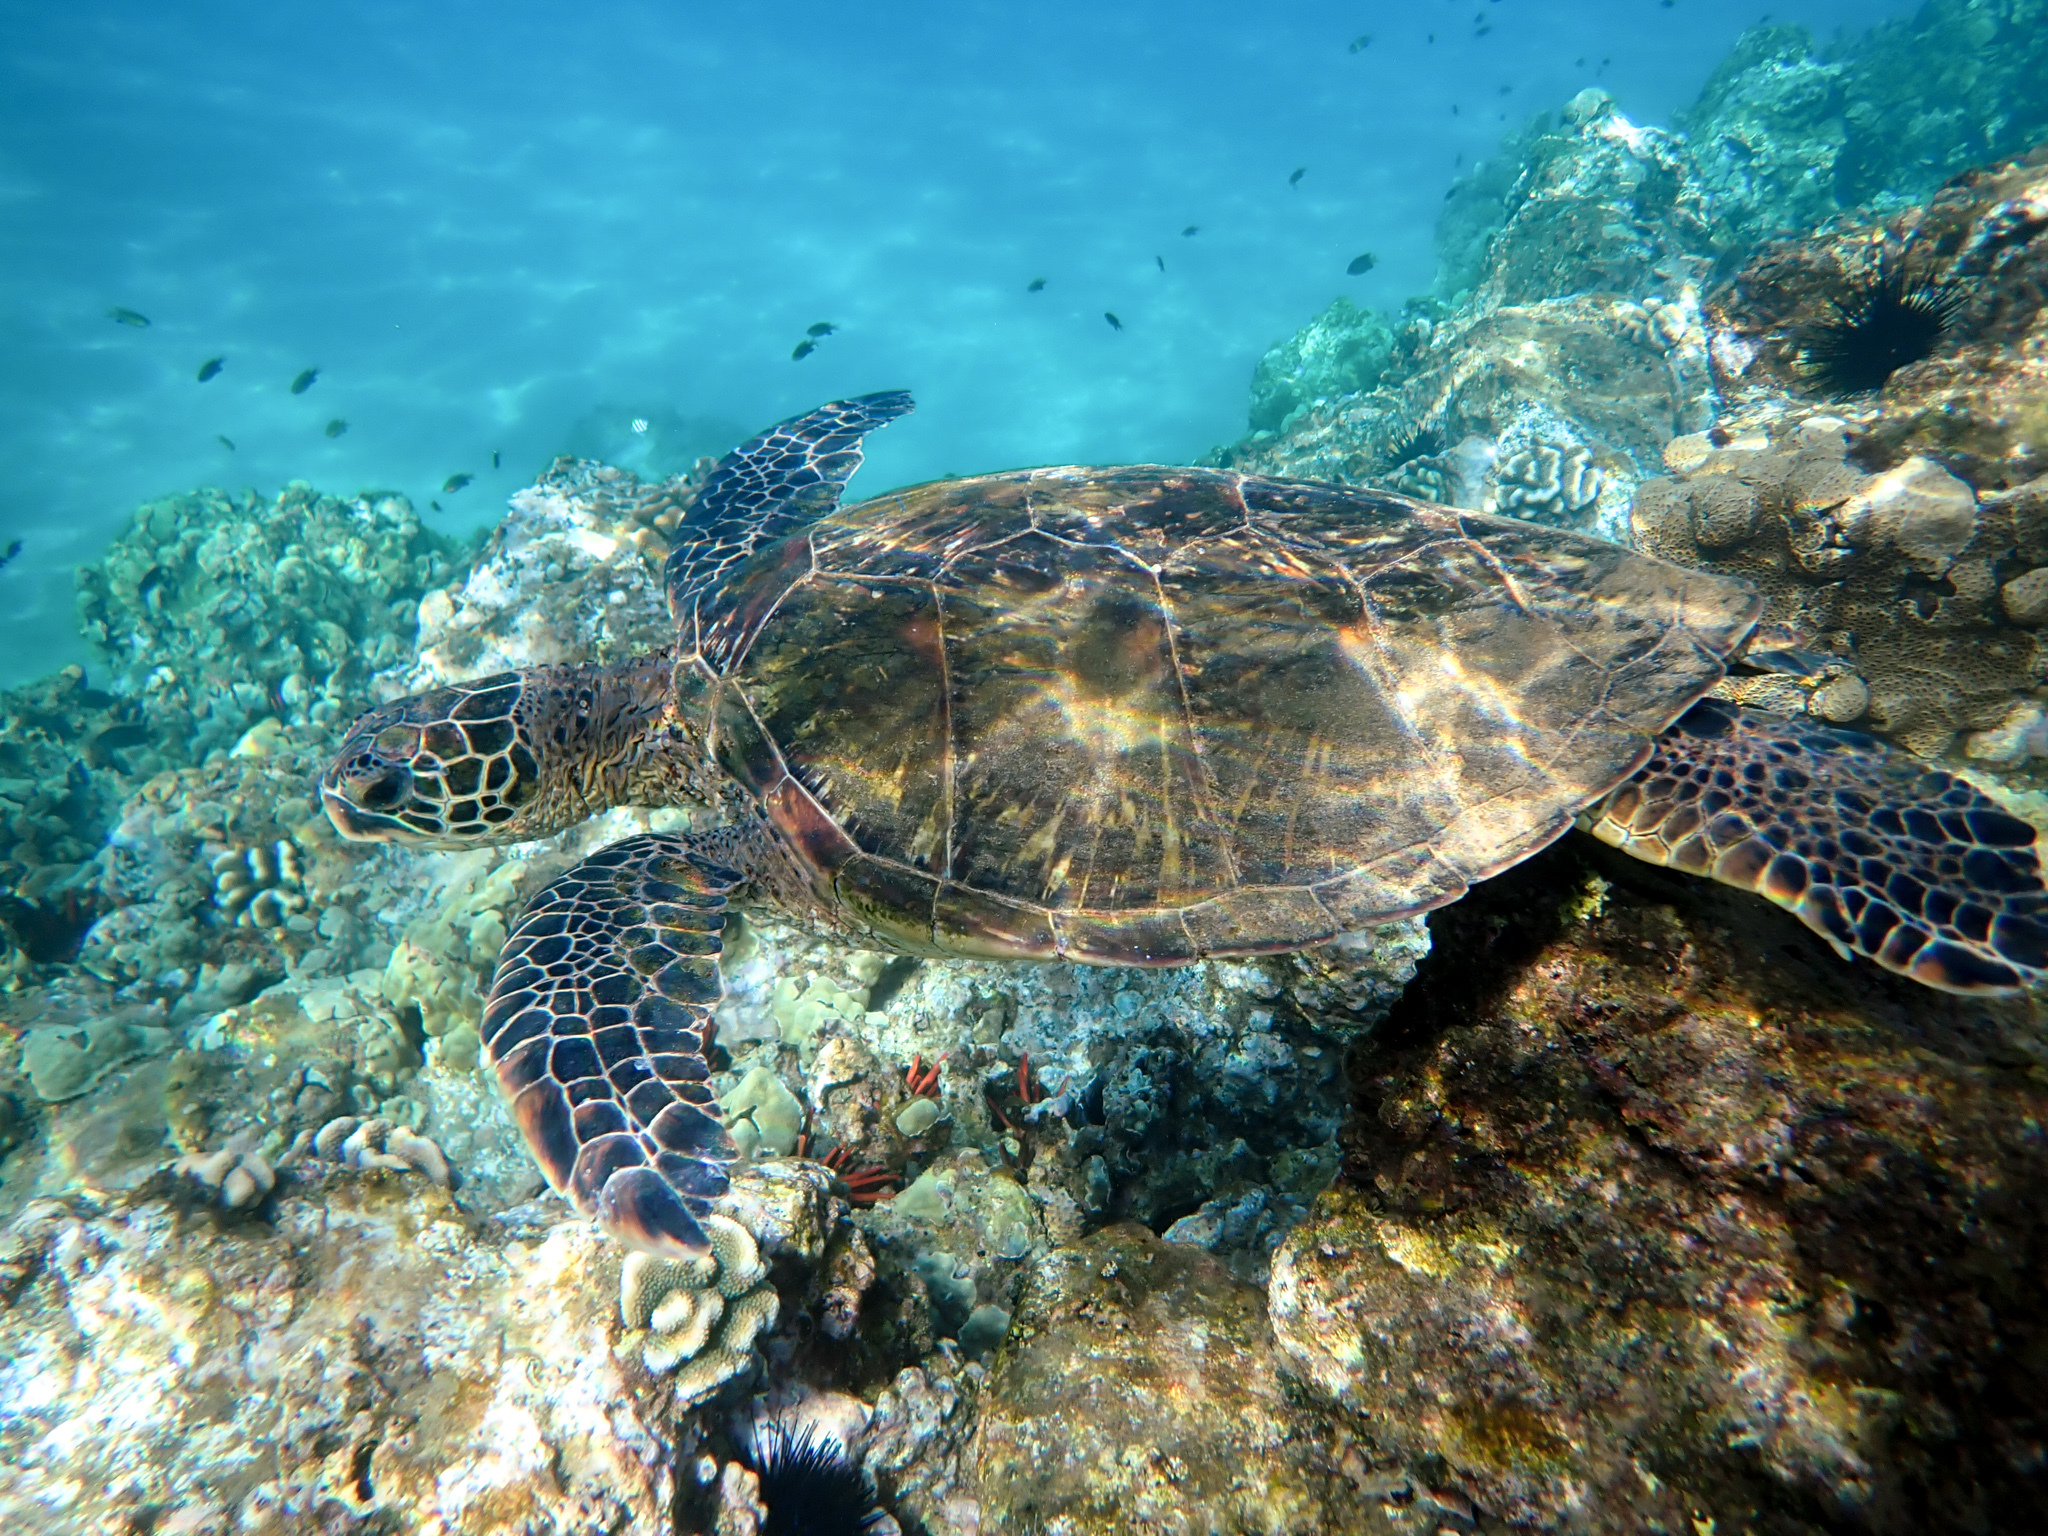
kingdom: Animalia
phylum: Chordata
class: Testudines
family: Cheloniidae
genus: Chelonia
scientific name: Chelonia mydas
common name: Green turtle
